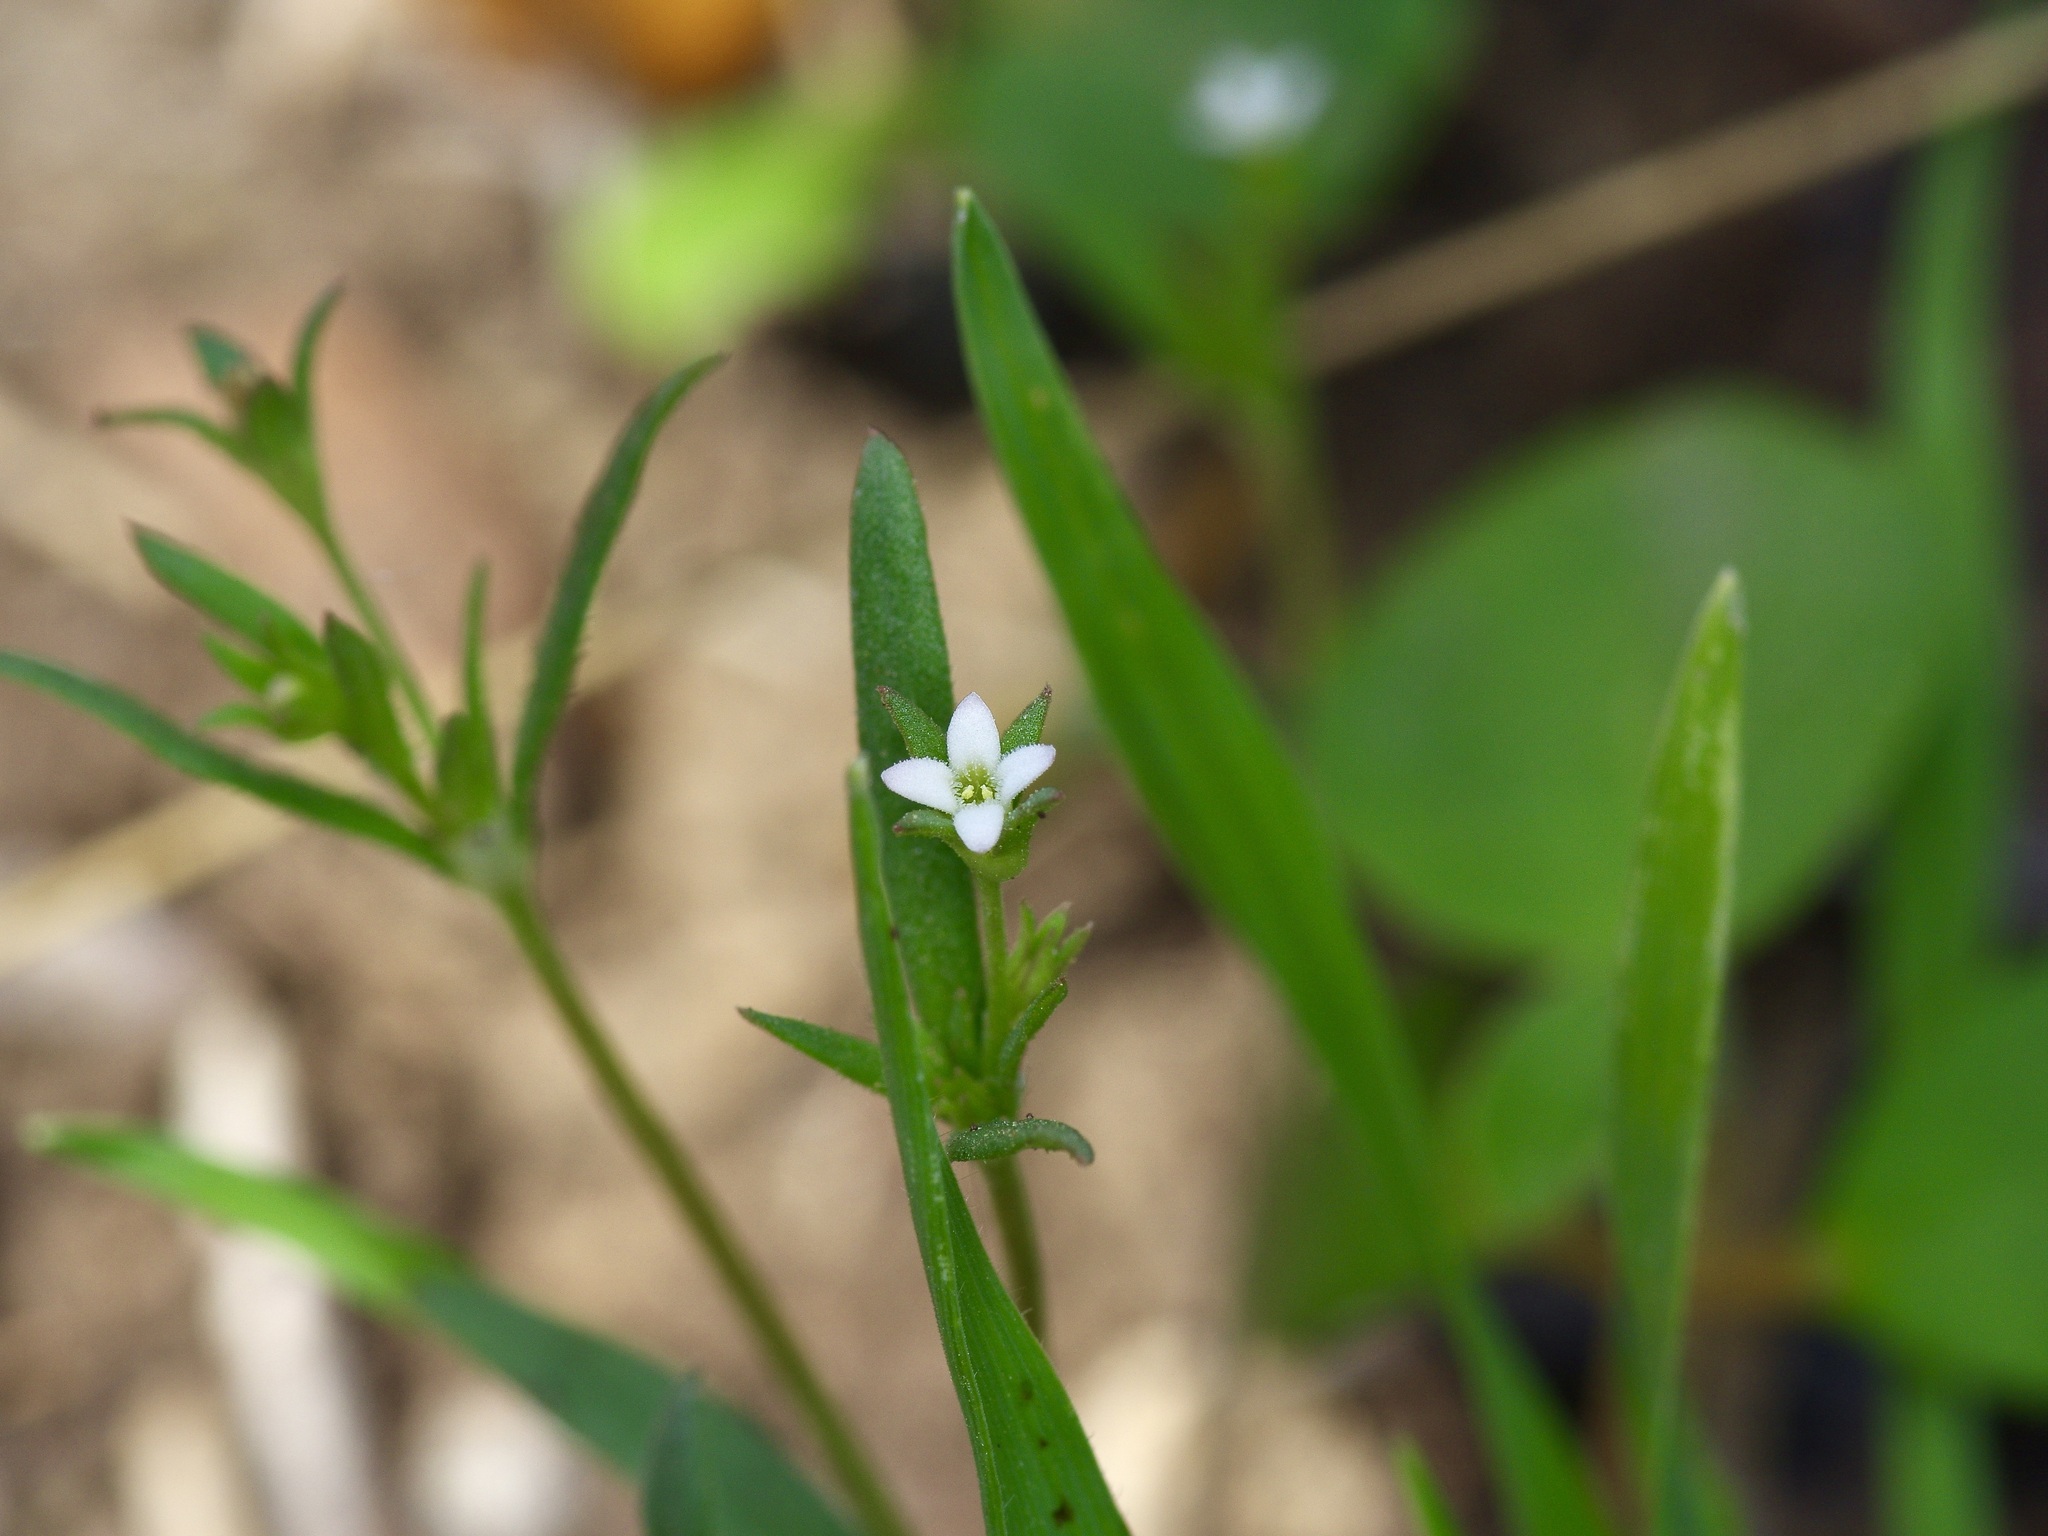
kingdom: Plantae
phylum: Tracheophyta
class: Magnoliopsida
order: Gentianales
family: Rubiaceae
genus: Houstonia
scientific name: Houstonia parviflora
